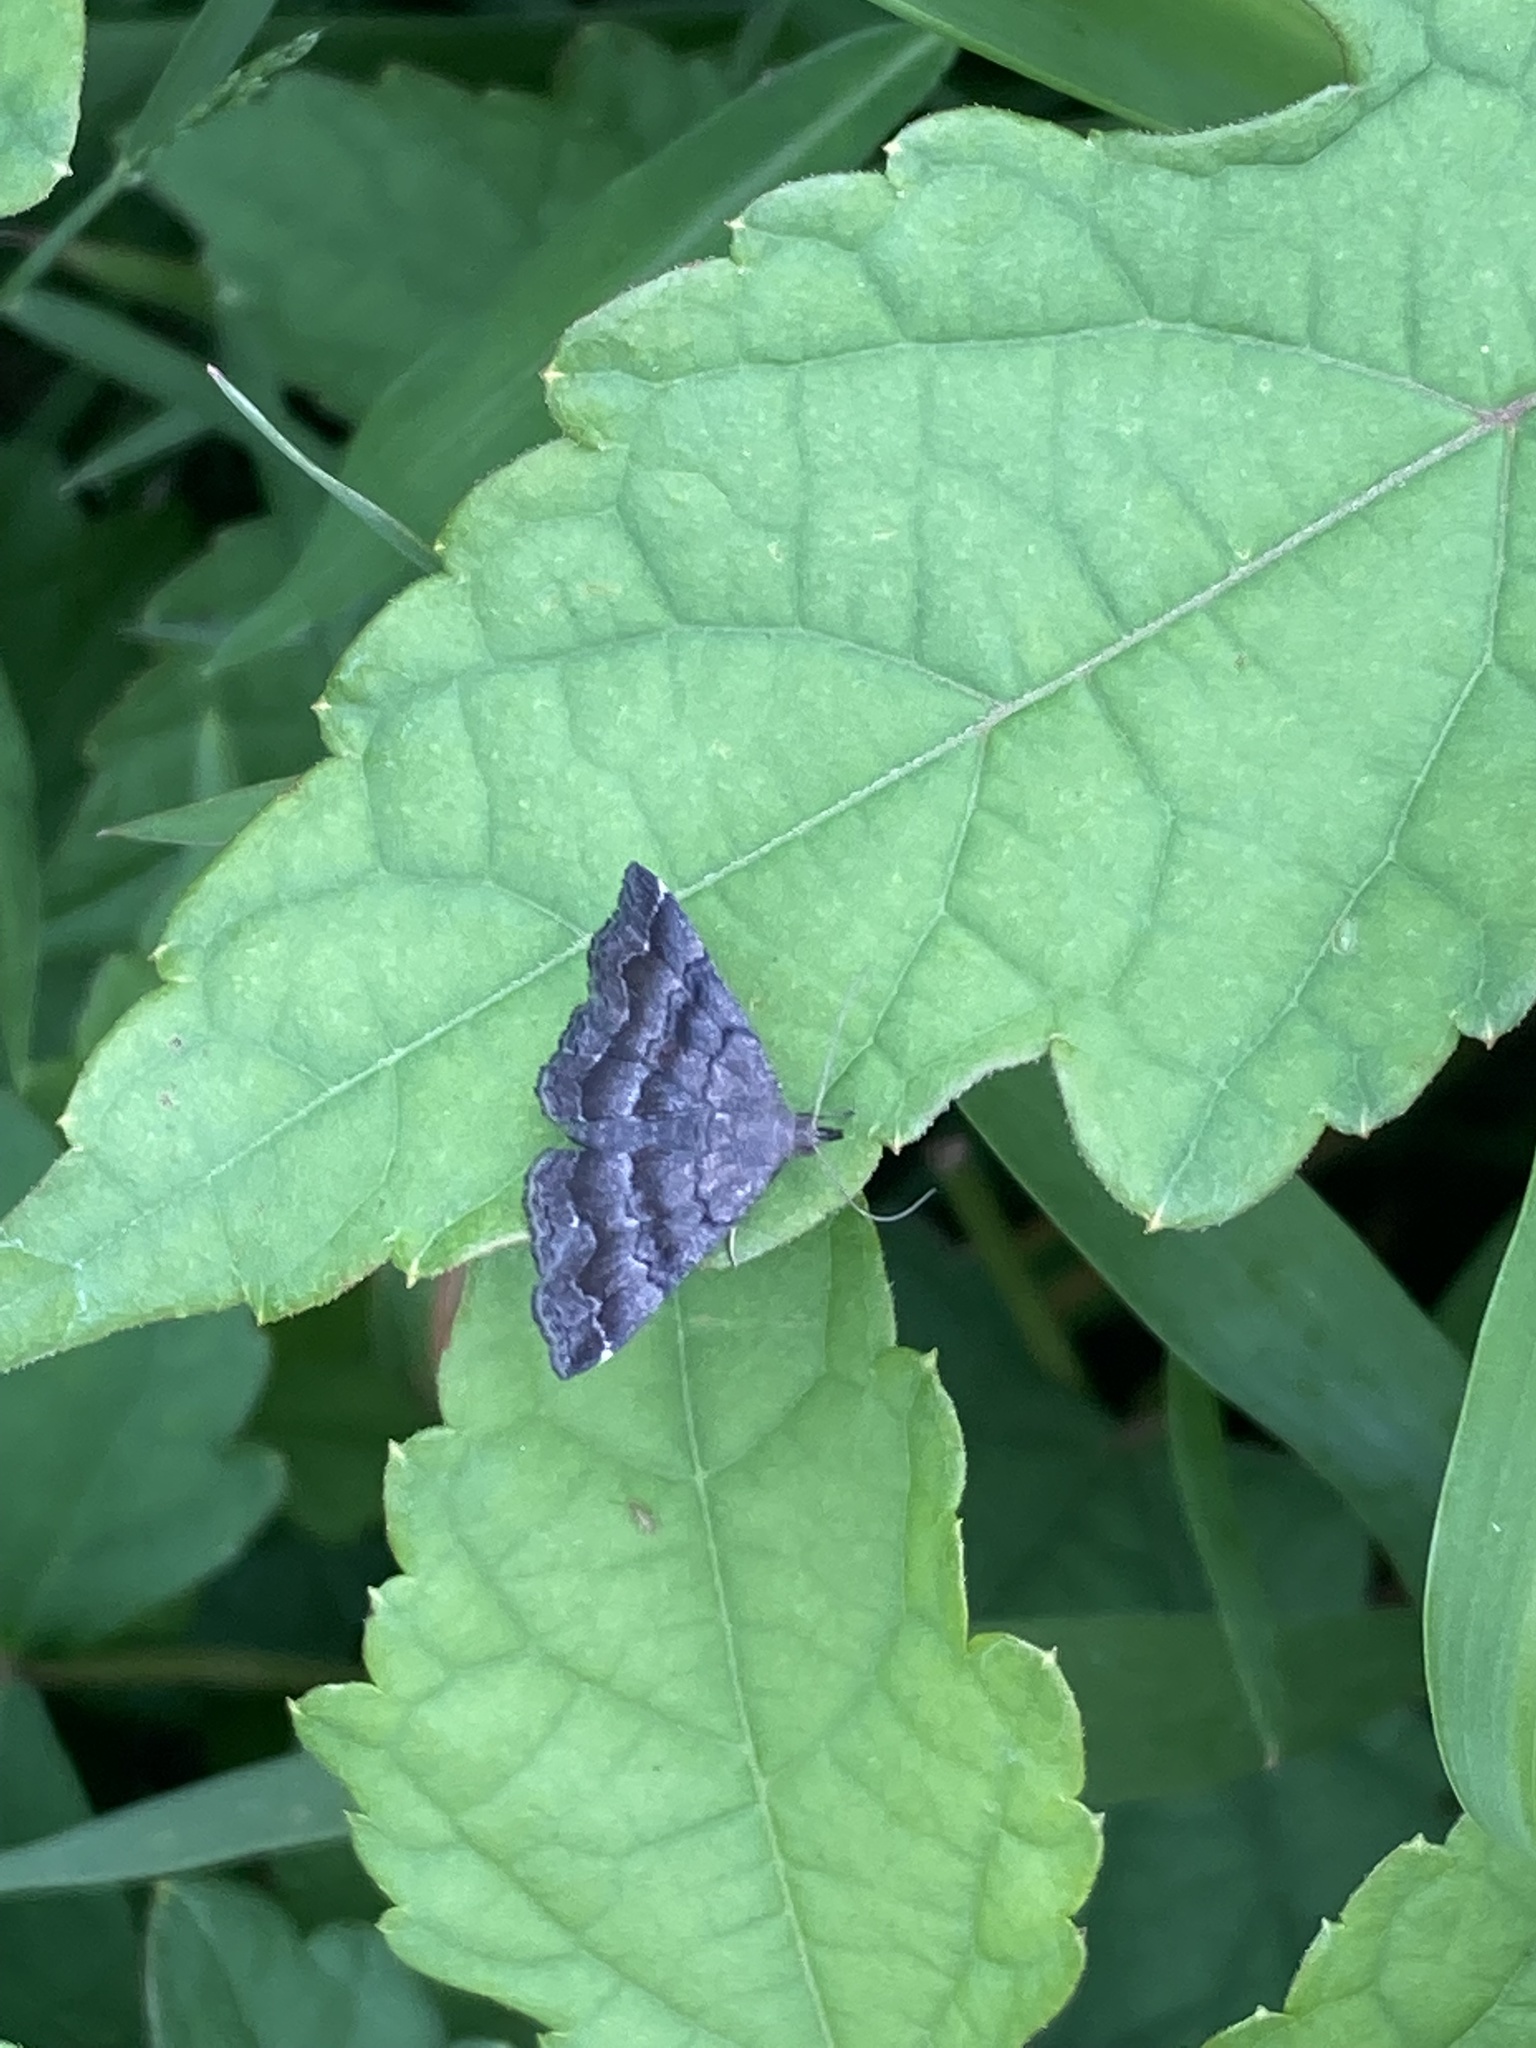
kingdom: Animalia
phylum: Arthropoda
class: Insecta
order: Lepidoptera
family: Erebidae
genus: Phalaenostola
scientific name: Phalaenostola larentioides
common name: Black-banded owlet
